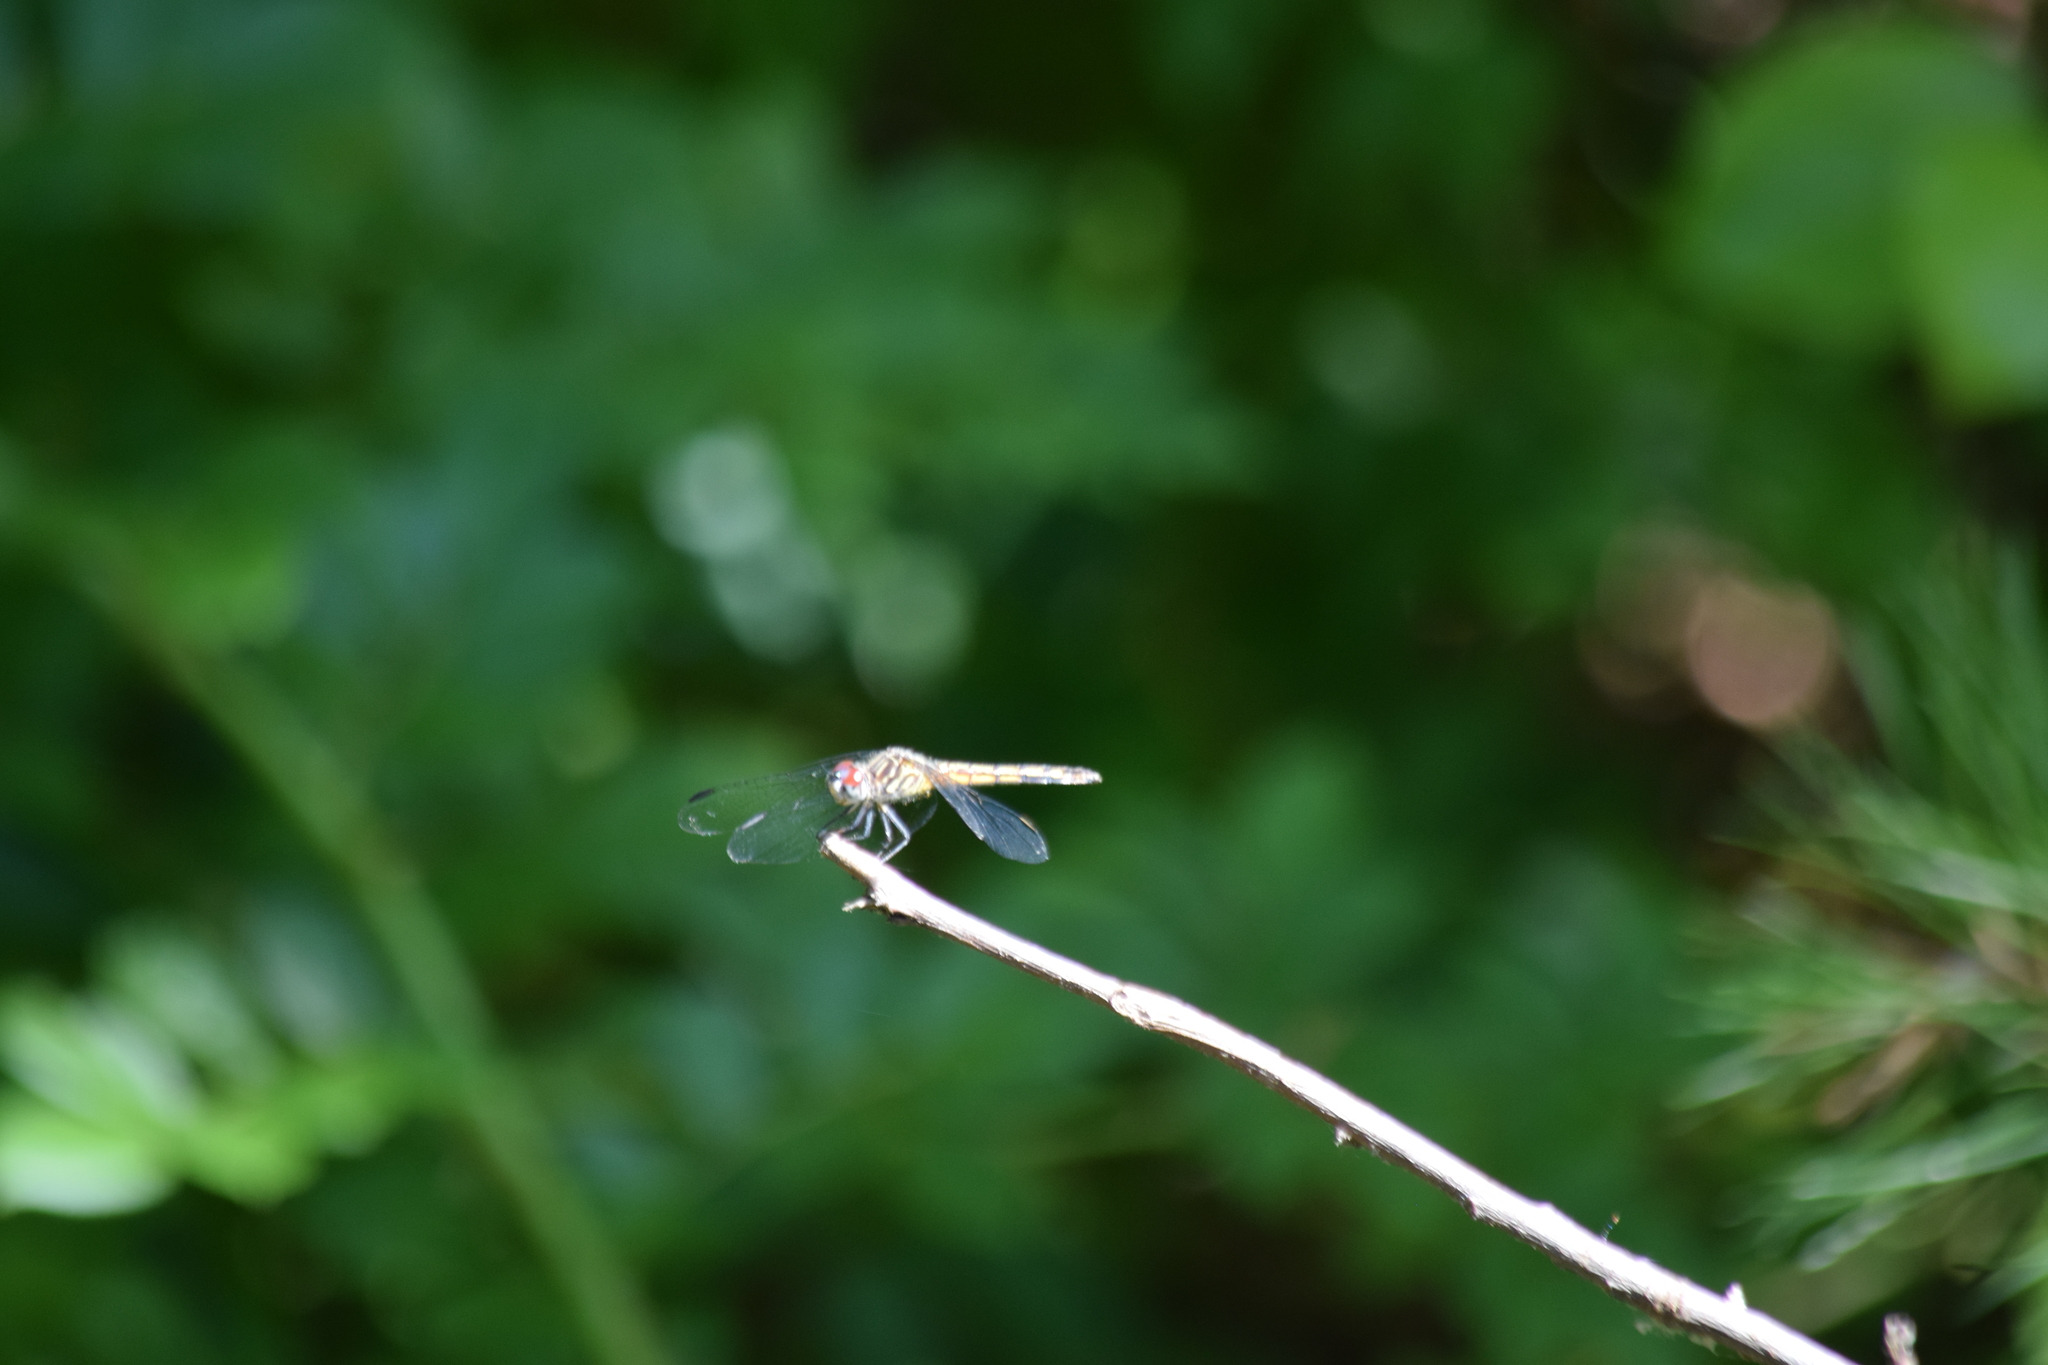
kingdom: Animalia
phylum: Arthropoda
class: Insecta
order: Odonata
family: Libellulidae
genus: Pachydiplax
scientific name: Pachydiplax longipennis
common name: Blue dasher
